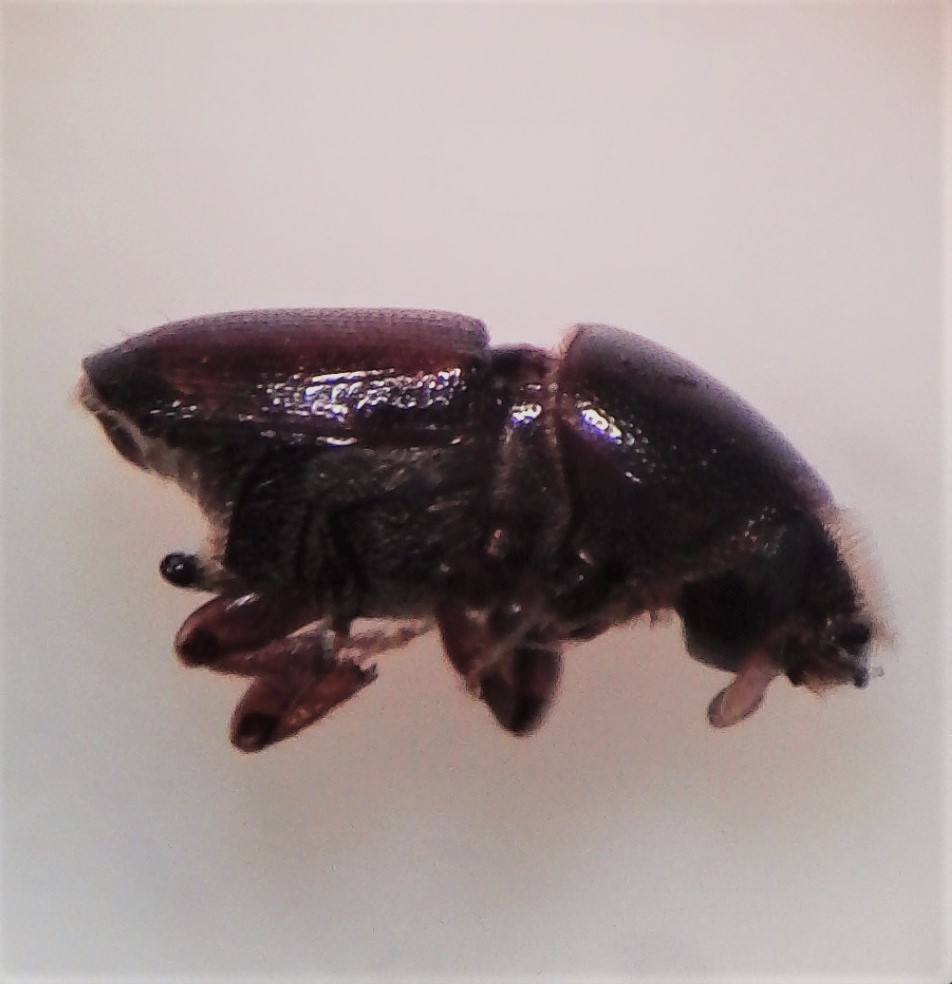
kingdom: Animalia
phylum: Arthropoda
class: Insecta
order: Coleoptera
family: Curculionidae
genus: Scolytus
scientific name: Scolytus multistriatus
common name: European elm bark beetle
